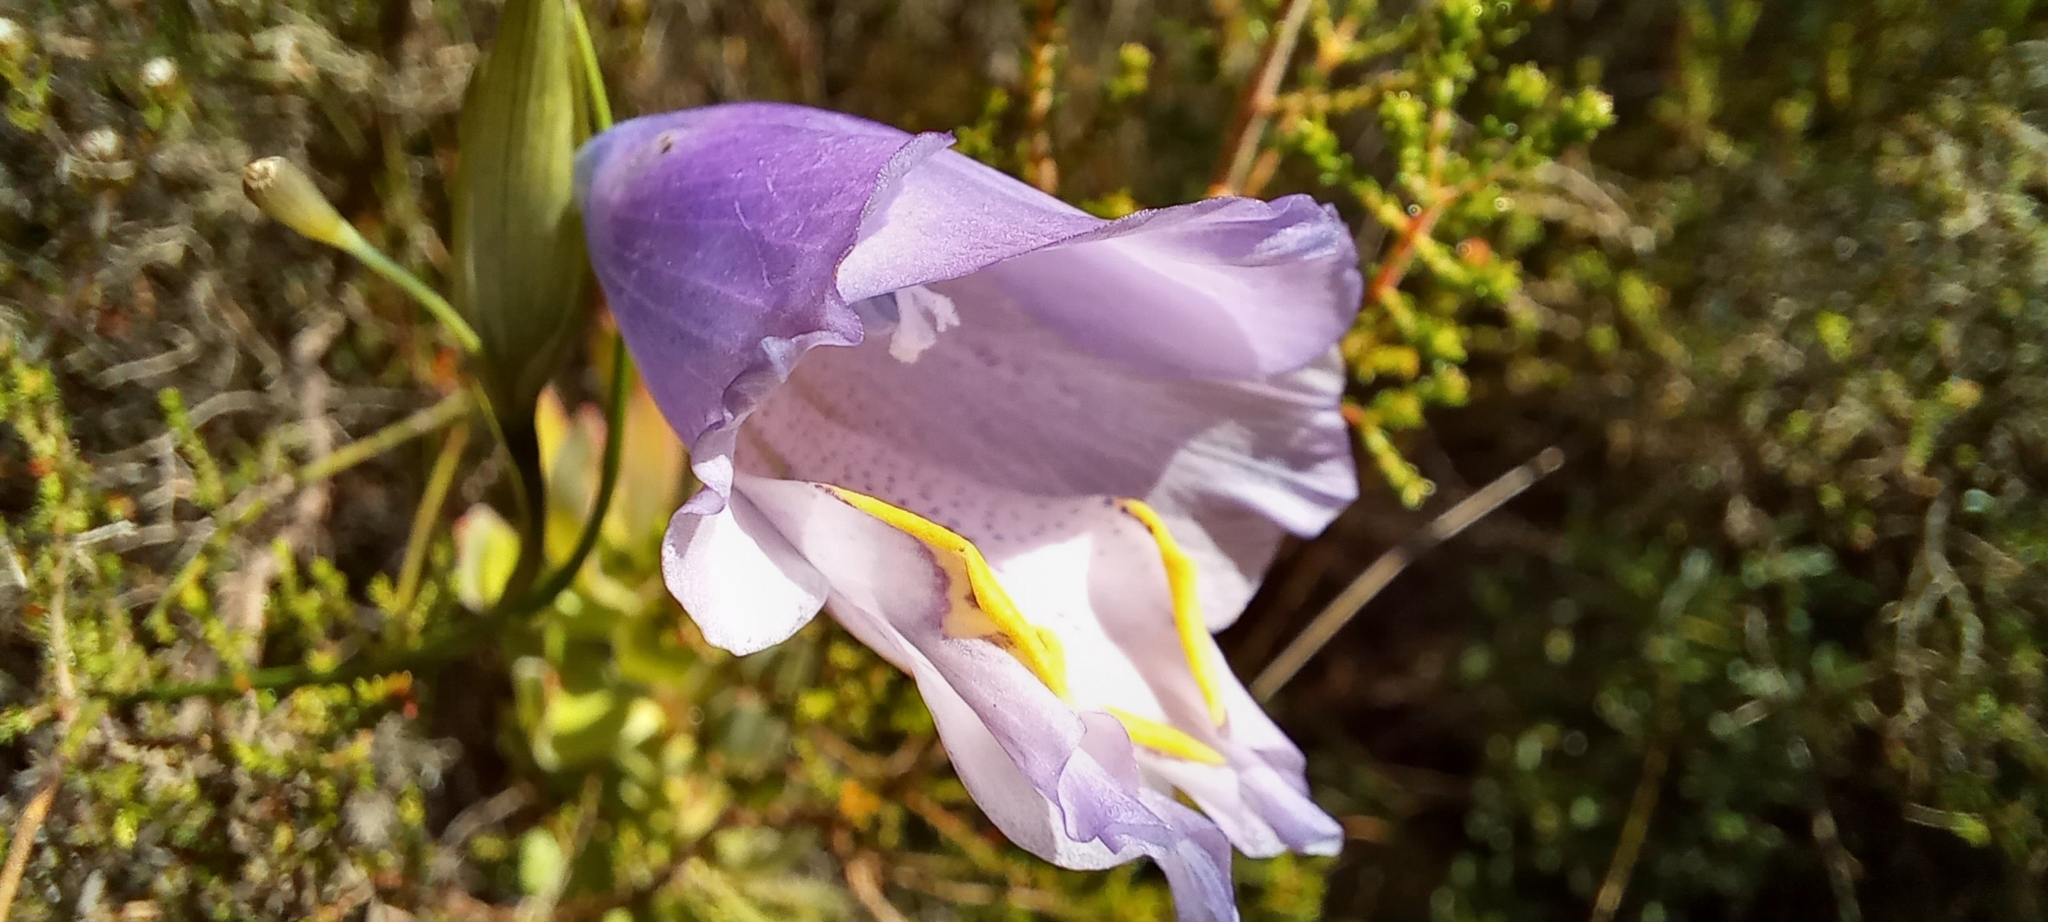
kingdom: Plantae
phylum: Tracheophyta
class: Liliopsida
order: Asparagales
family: Iridaceae
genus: Gladiolus
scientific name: Gladiolus bullatus
